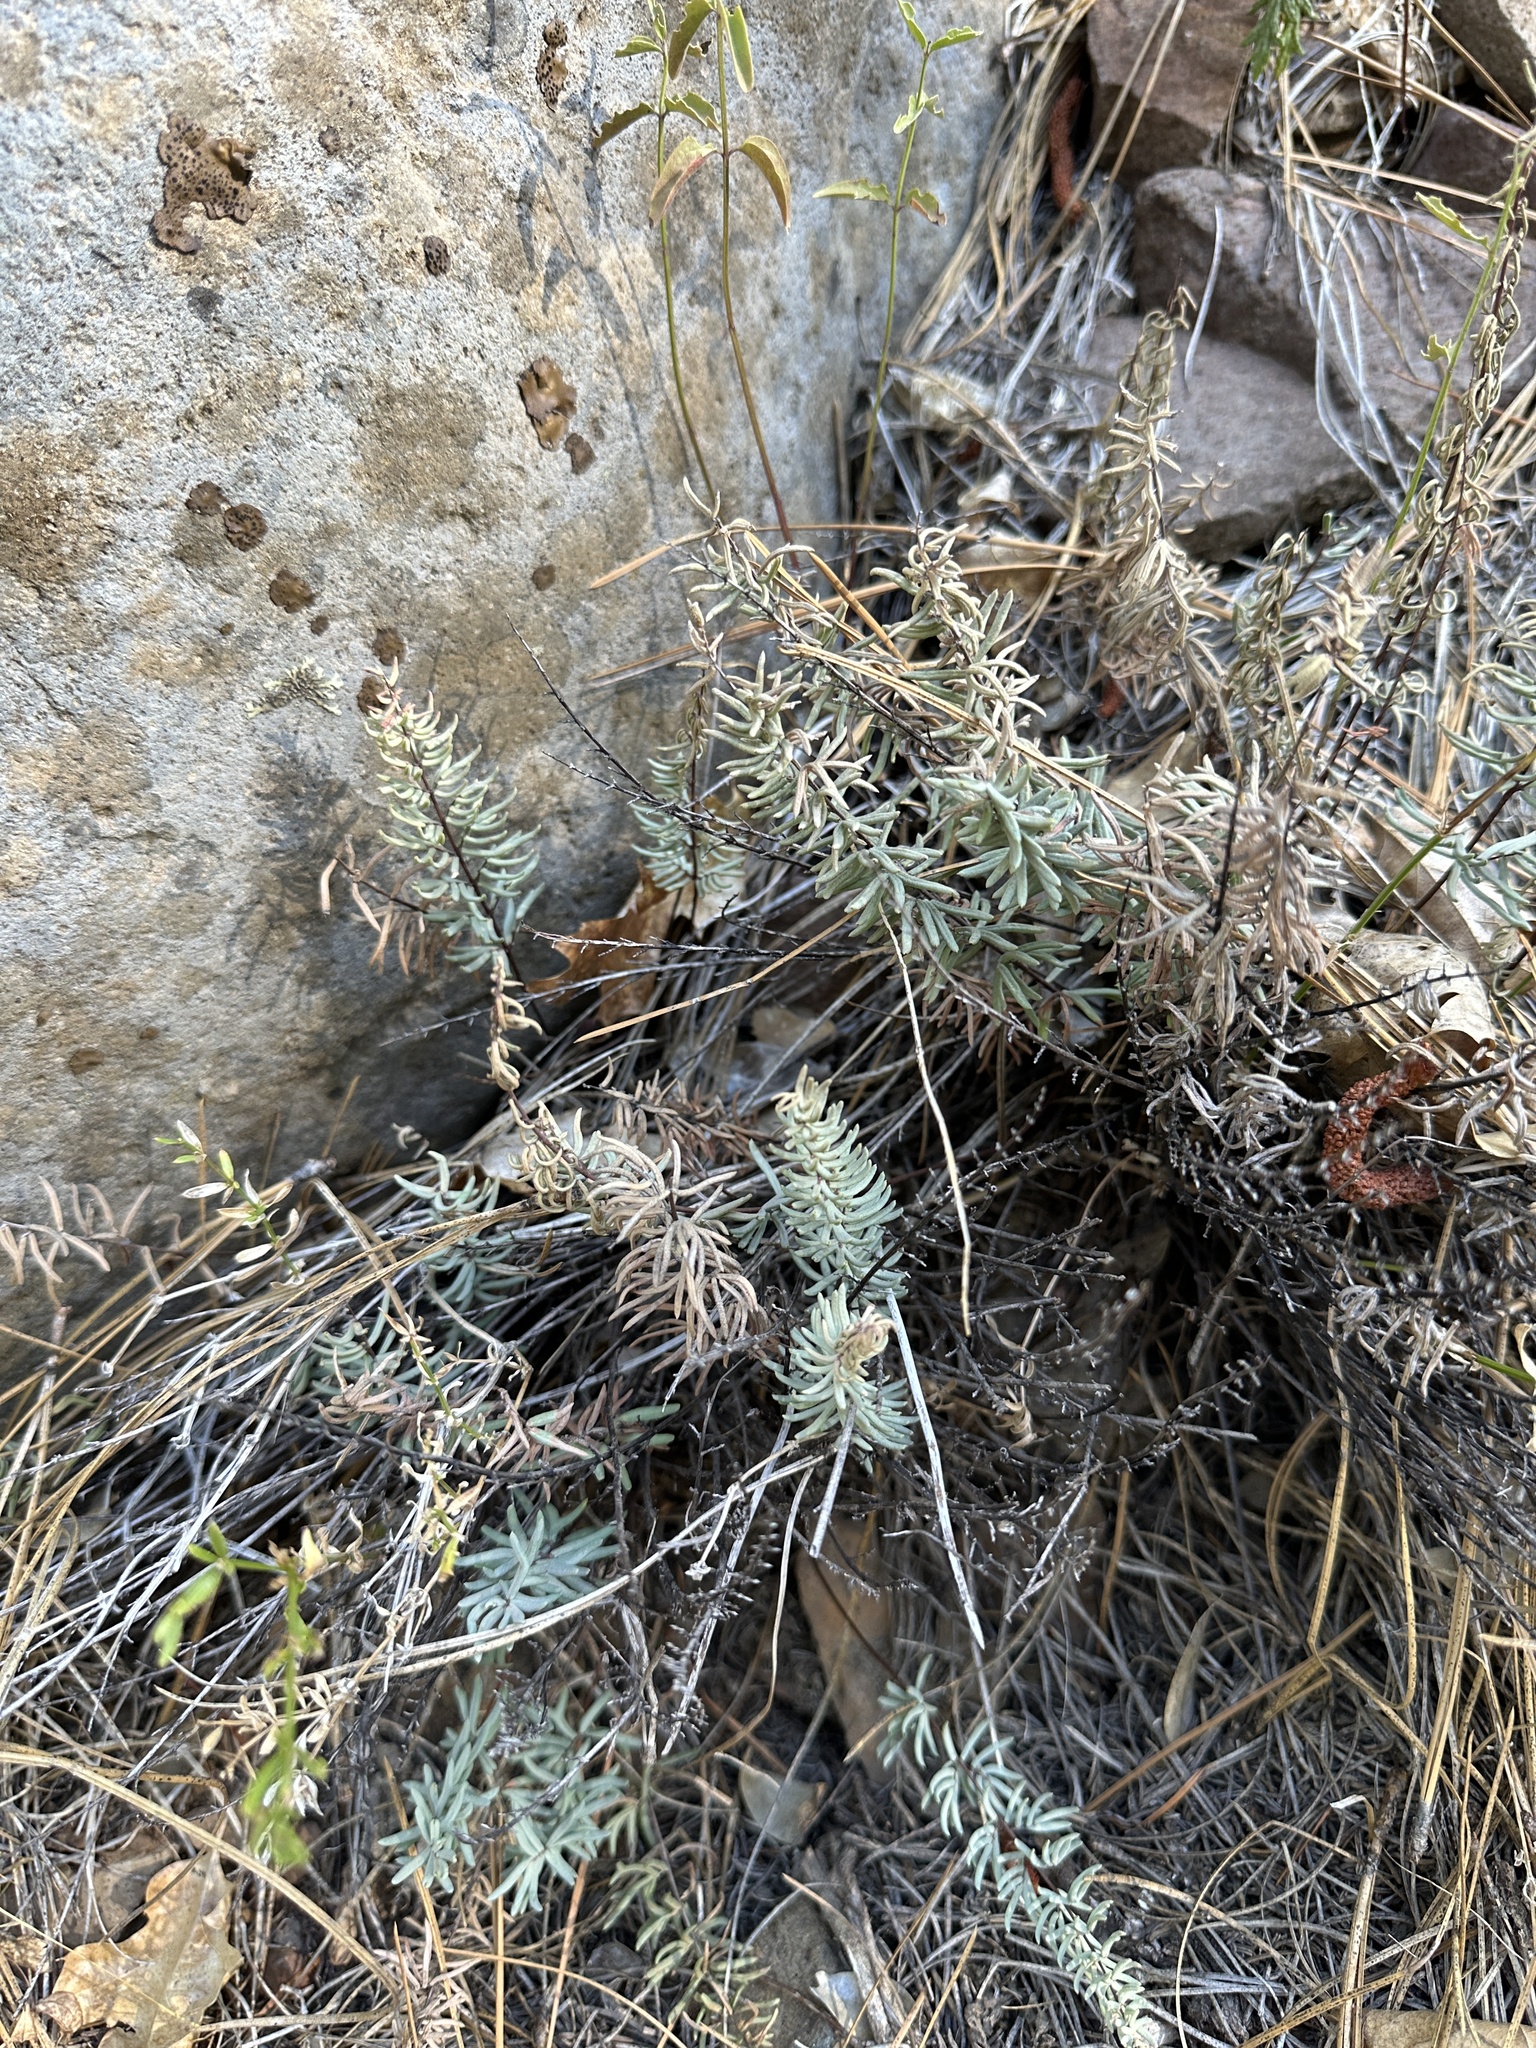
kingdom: Plantae
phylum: Tracheophyta
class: Polypodiopsida
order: Polypodiales
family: Pteridaceae
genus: Pellaea
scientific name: Pellaea brachyptera
